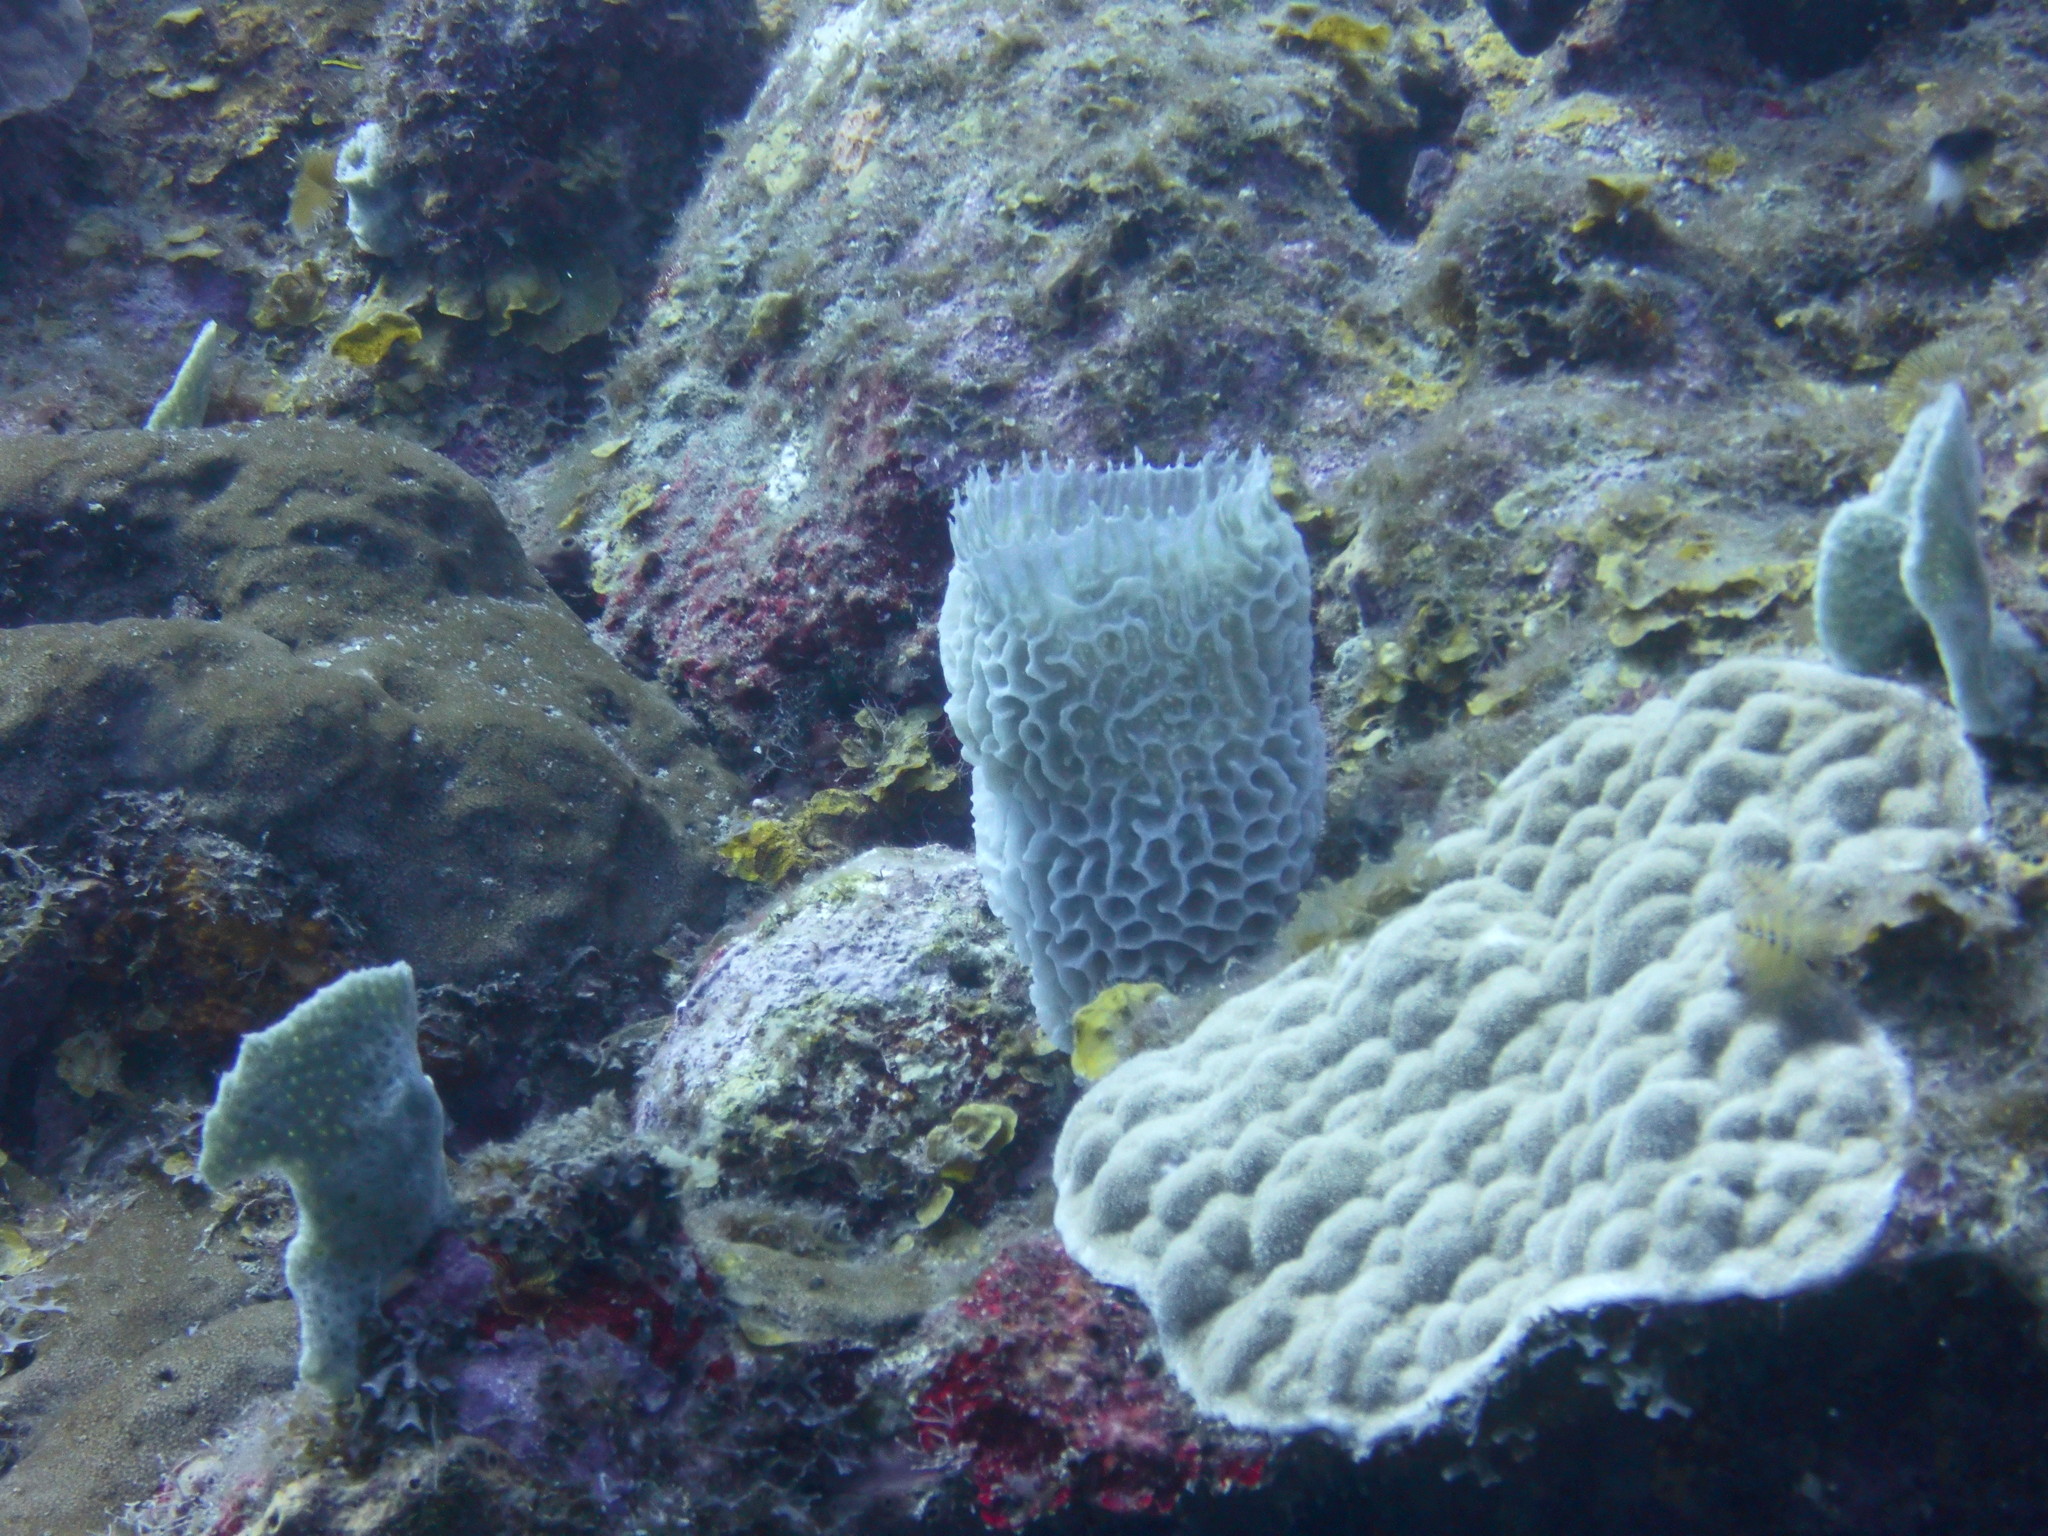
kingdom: Animalia
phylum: Porifera
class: Demospongiae
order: Haplosclerida
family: Callyspongiidae
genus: Callyspongia
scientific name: Callyspongia plicifera
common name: Azure vase sponge
